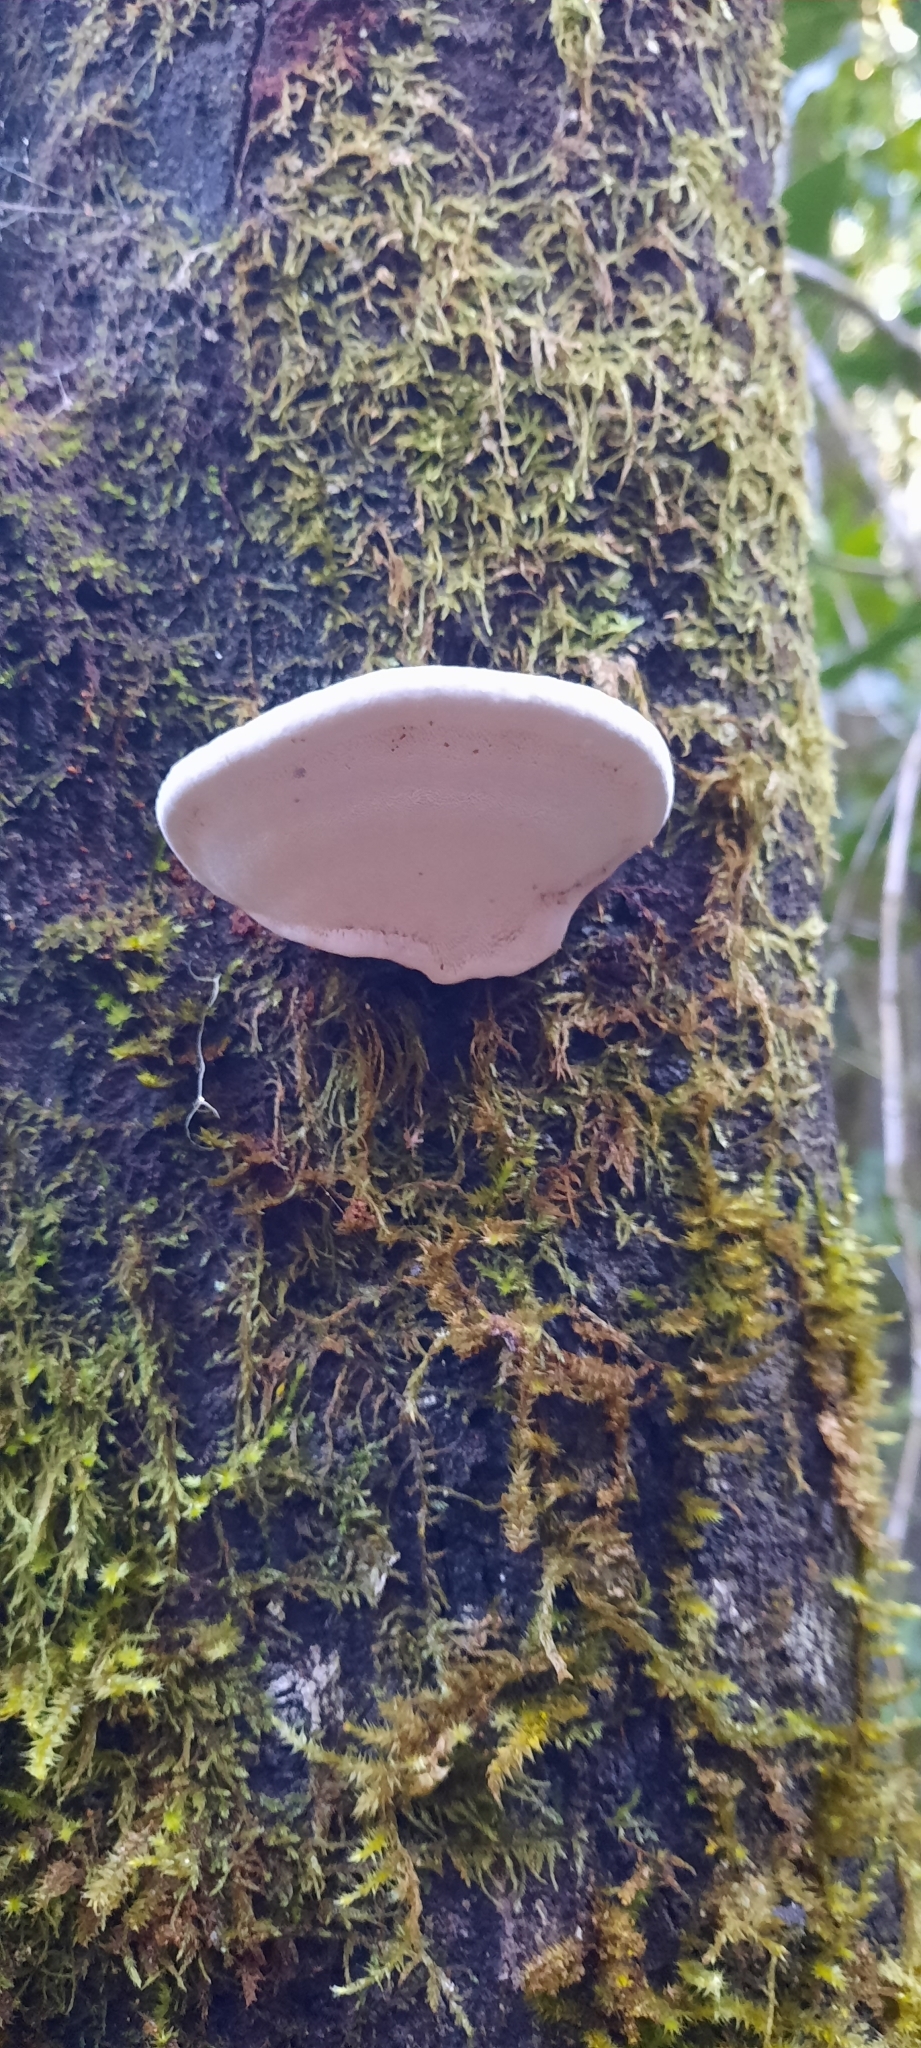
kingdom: Fungi
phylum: Basidiomycota
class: Agaricomycetes
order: Polyporales
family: Polyporaceae
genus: Ganoderma
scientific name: Ganoderma applanatum
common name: Artist's bracket
